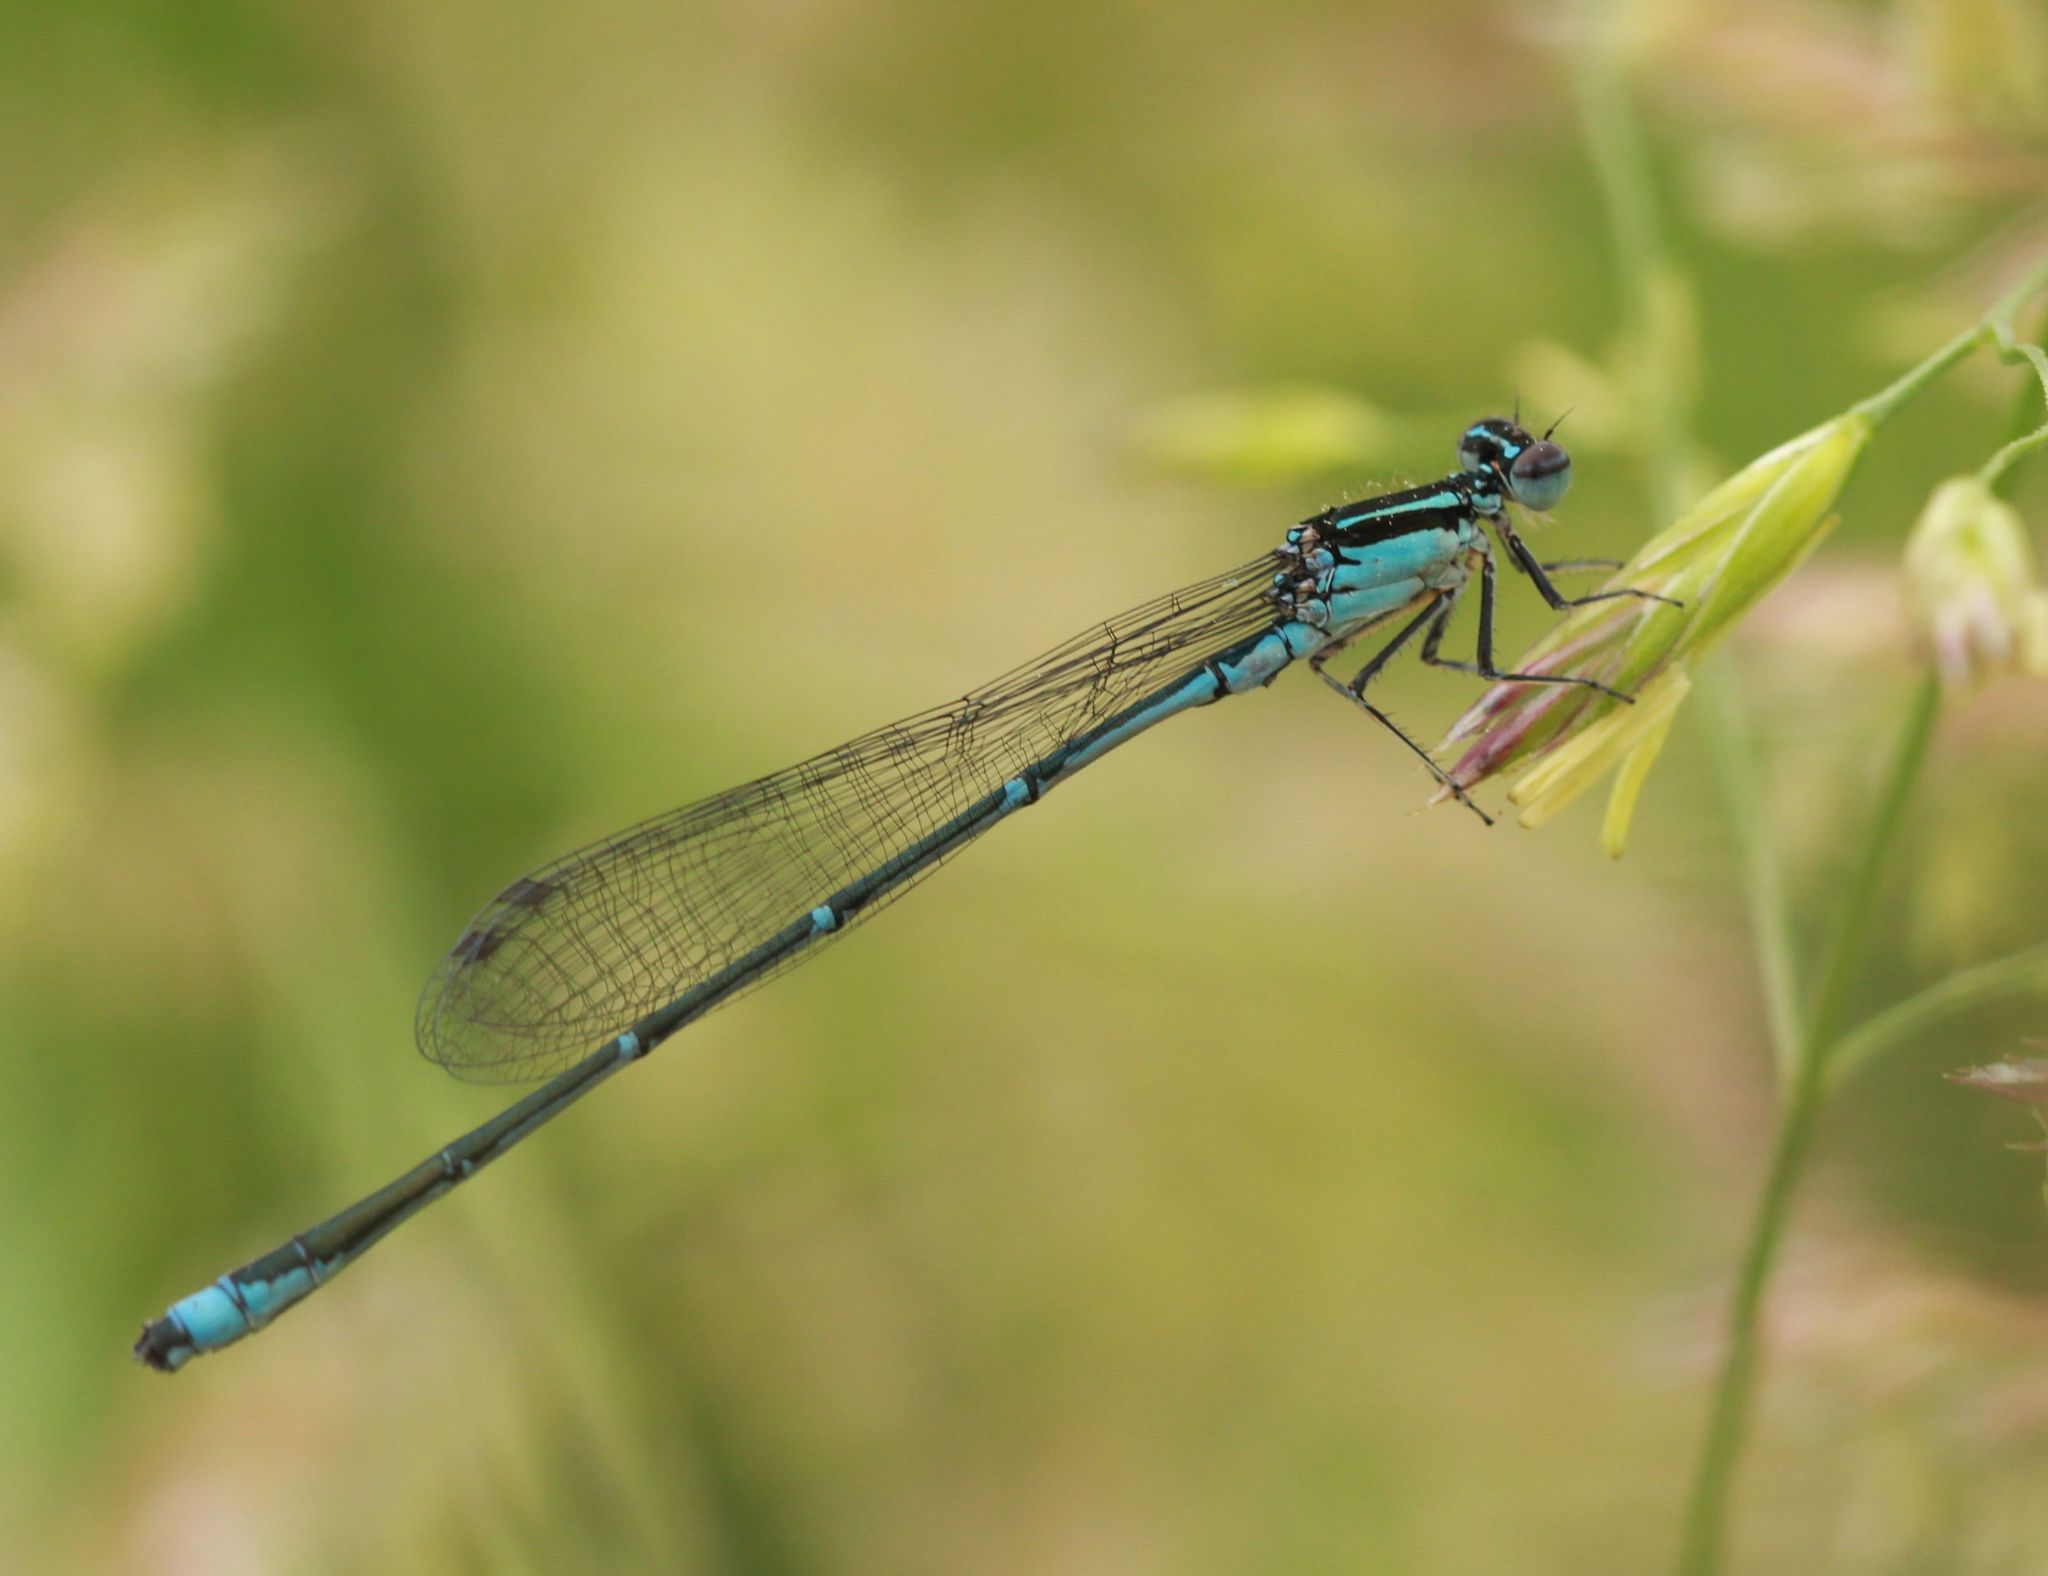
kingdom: Animalia
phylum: Arthropoda
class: Insecta
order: Odonata
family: Coenagrionidae
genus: Enallagma
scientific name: Enallagma exsulans
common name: Stream bluet
